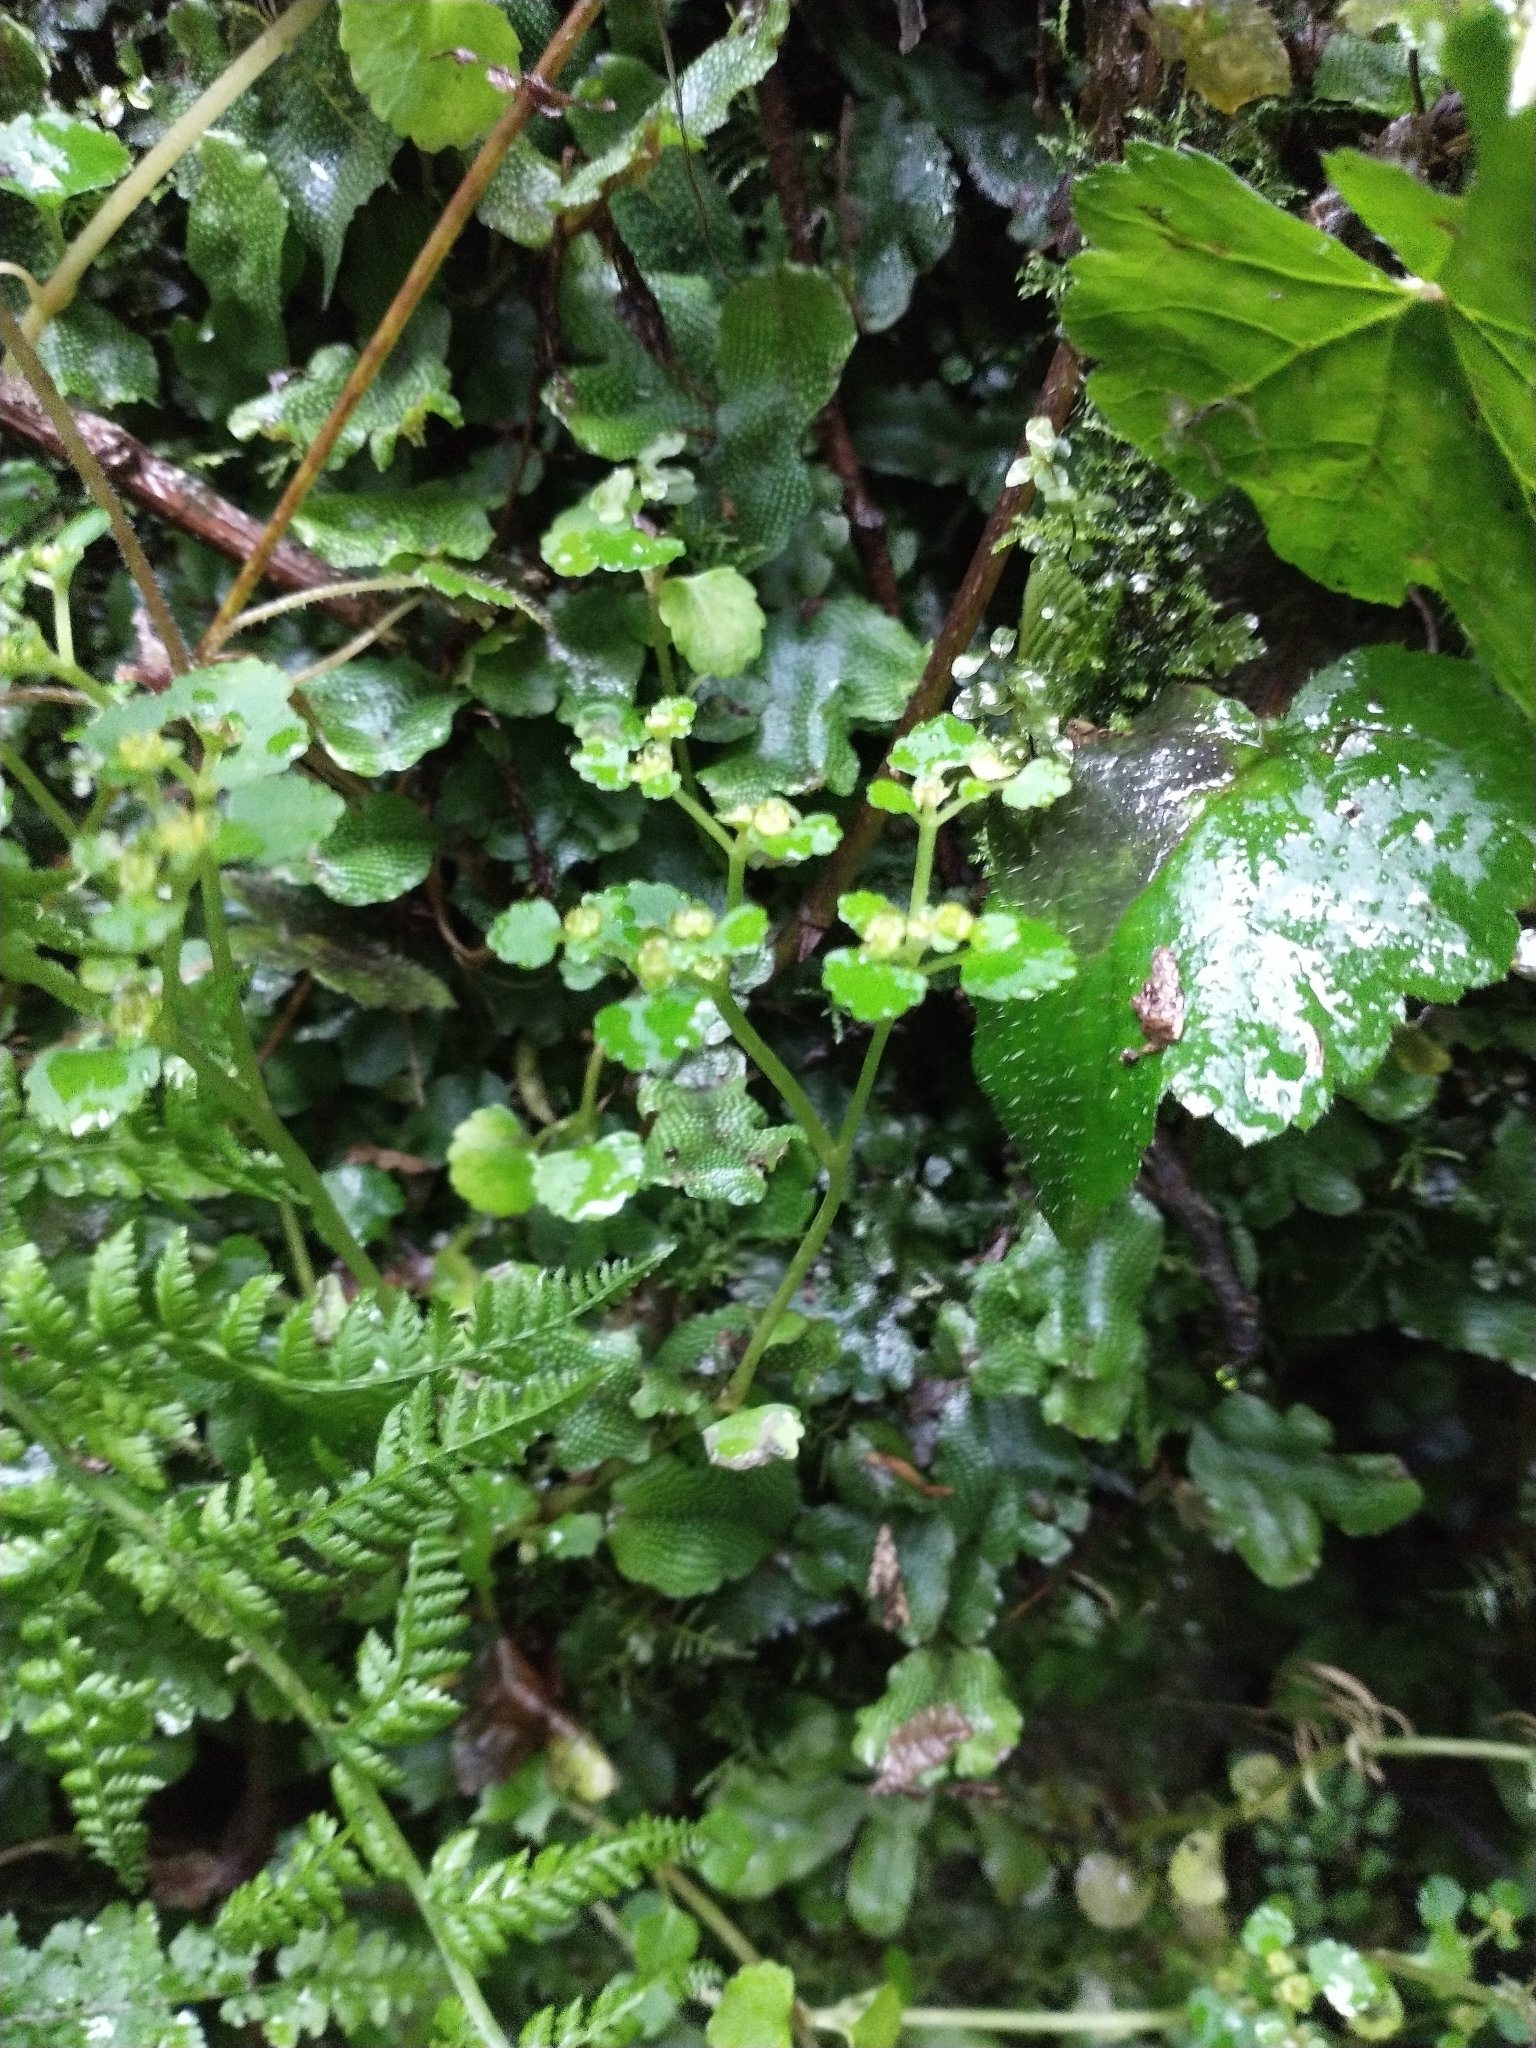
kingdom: Plantae
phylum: Tracheophyta
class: Magnoliopsida
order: Saxifragales
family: Saxifragaceae
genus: Chrysosplenium
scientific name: Chrysosplenium glechomifolium
